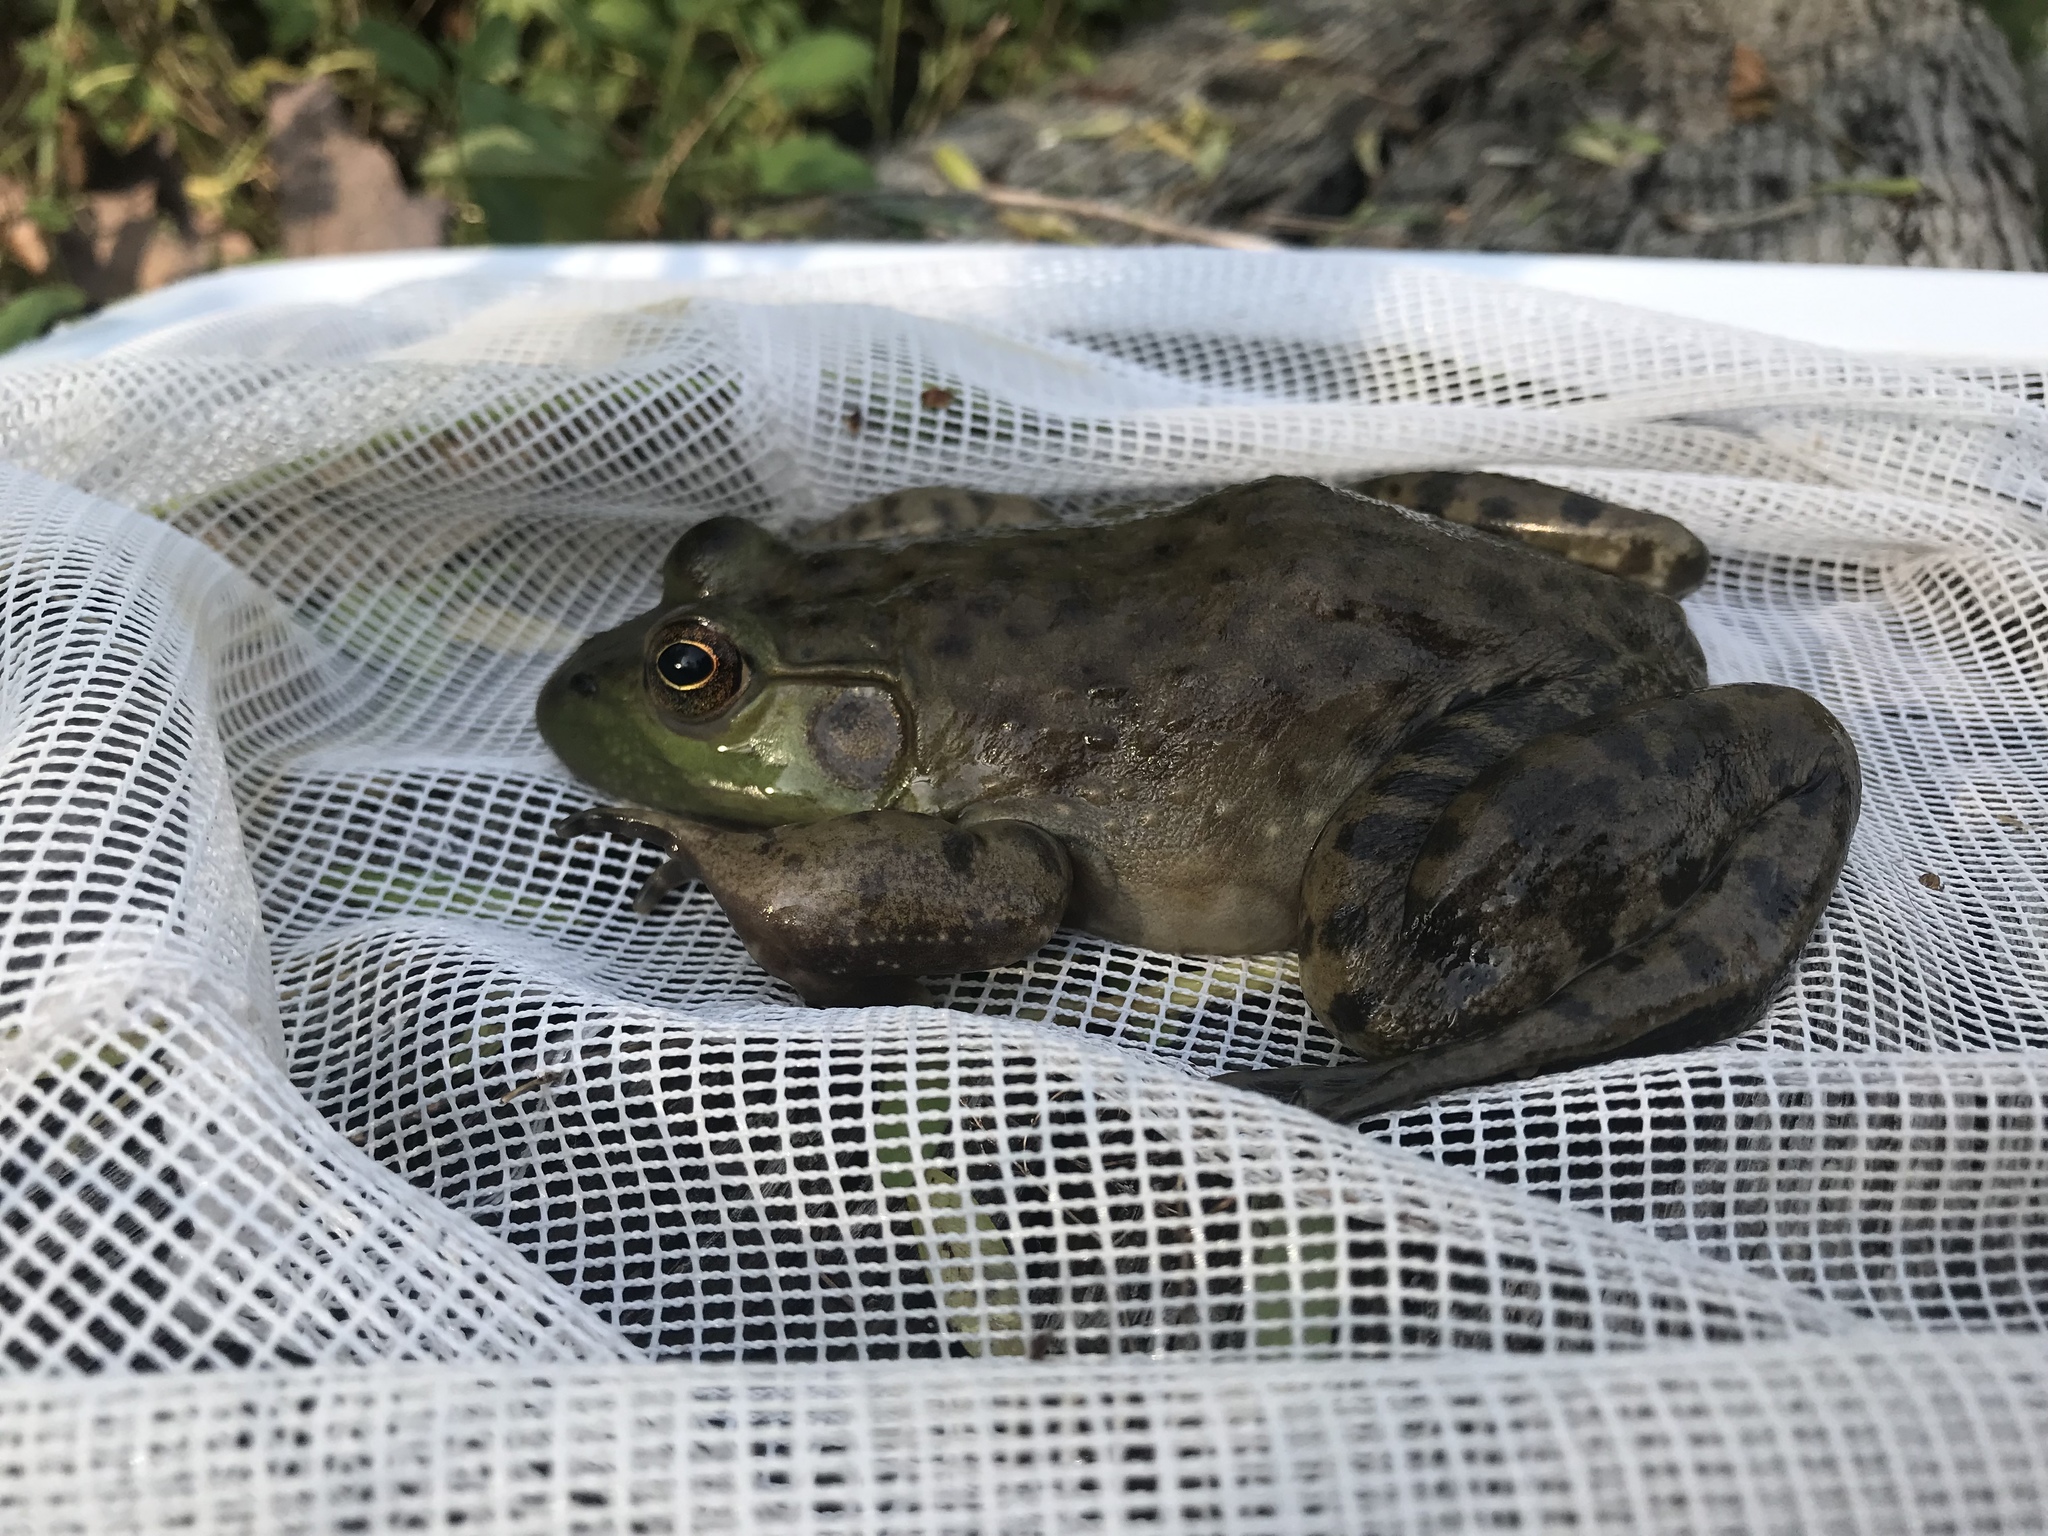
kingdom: Animalia
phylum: Chordata
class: Amphibia
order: Anura
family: Ranidae
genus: Lithobates
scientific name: Lithobates catesbeianus
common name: American bullfrog
